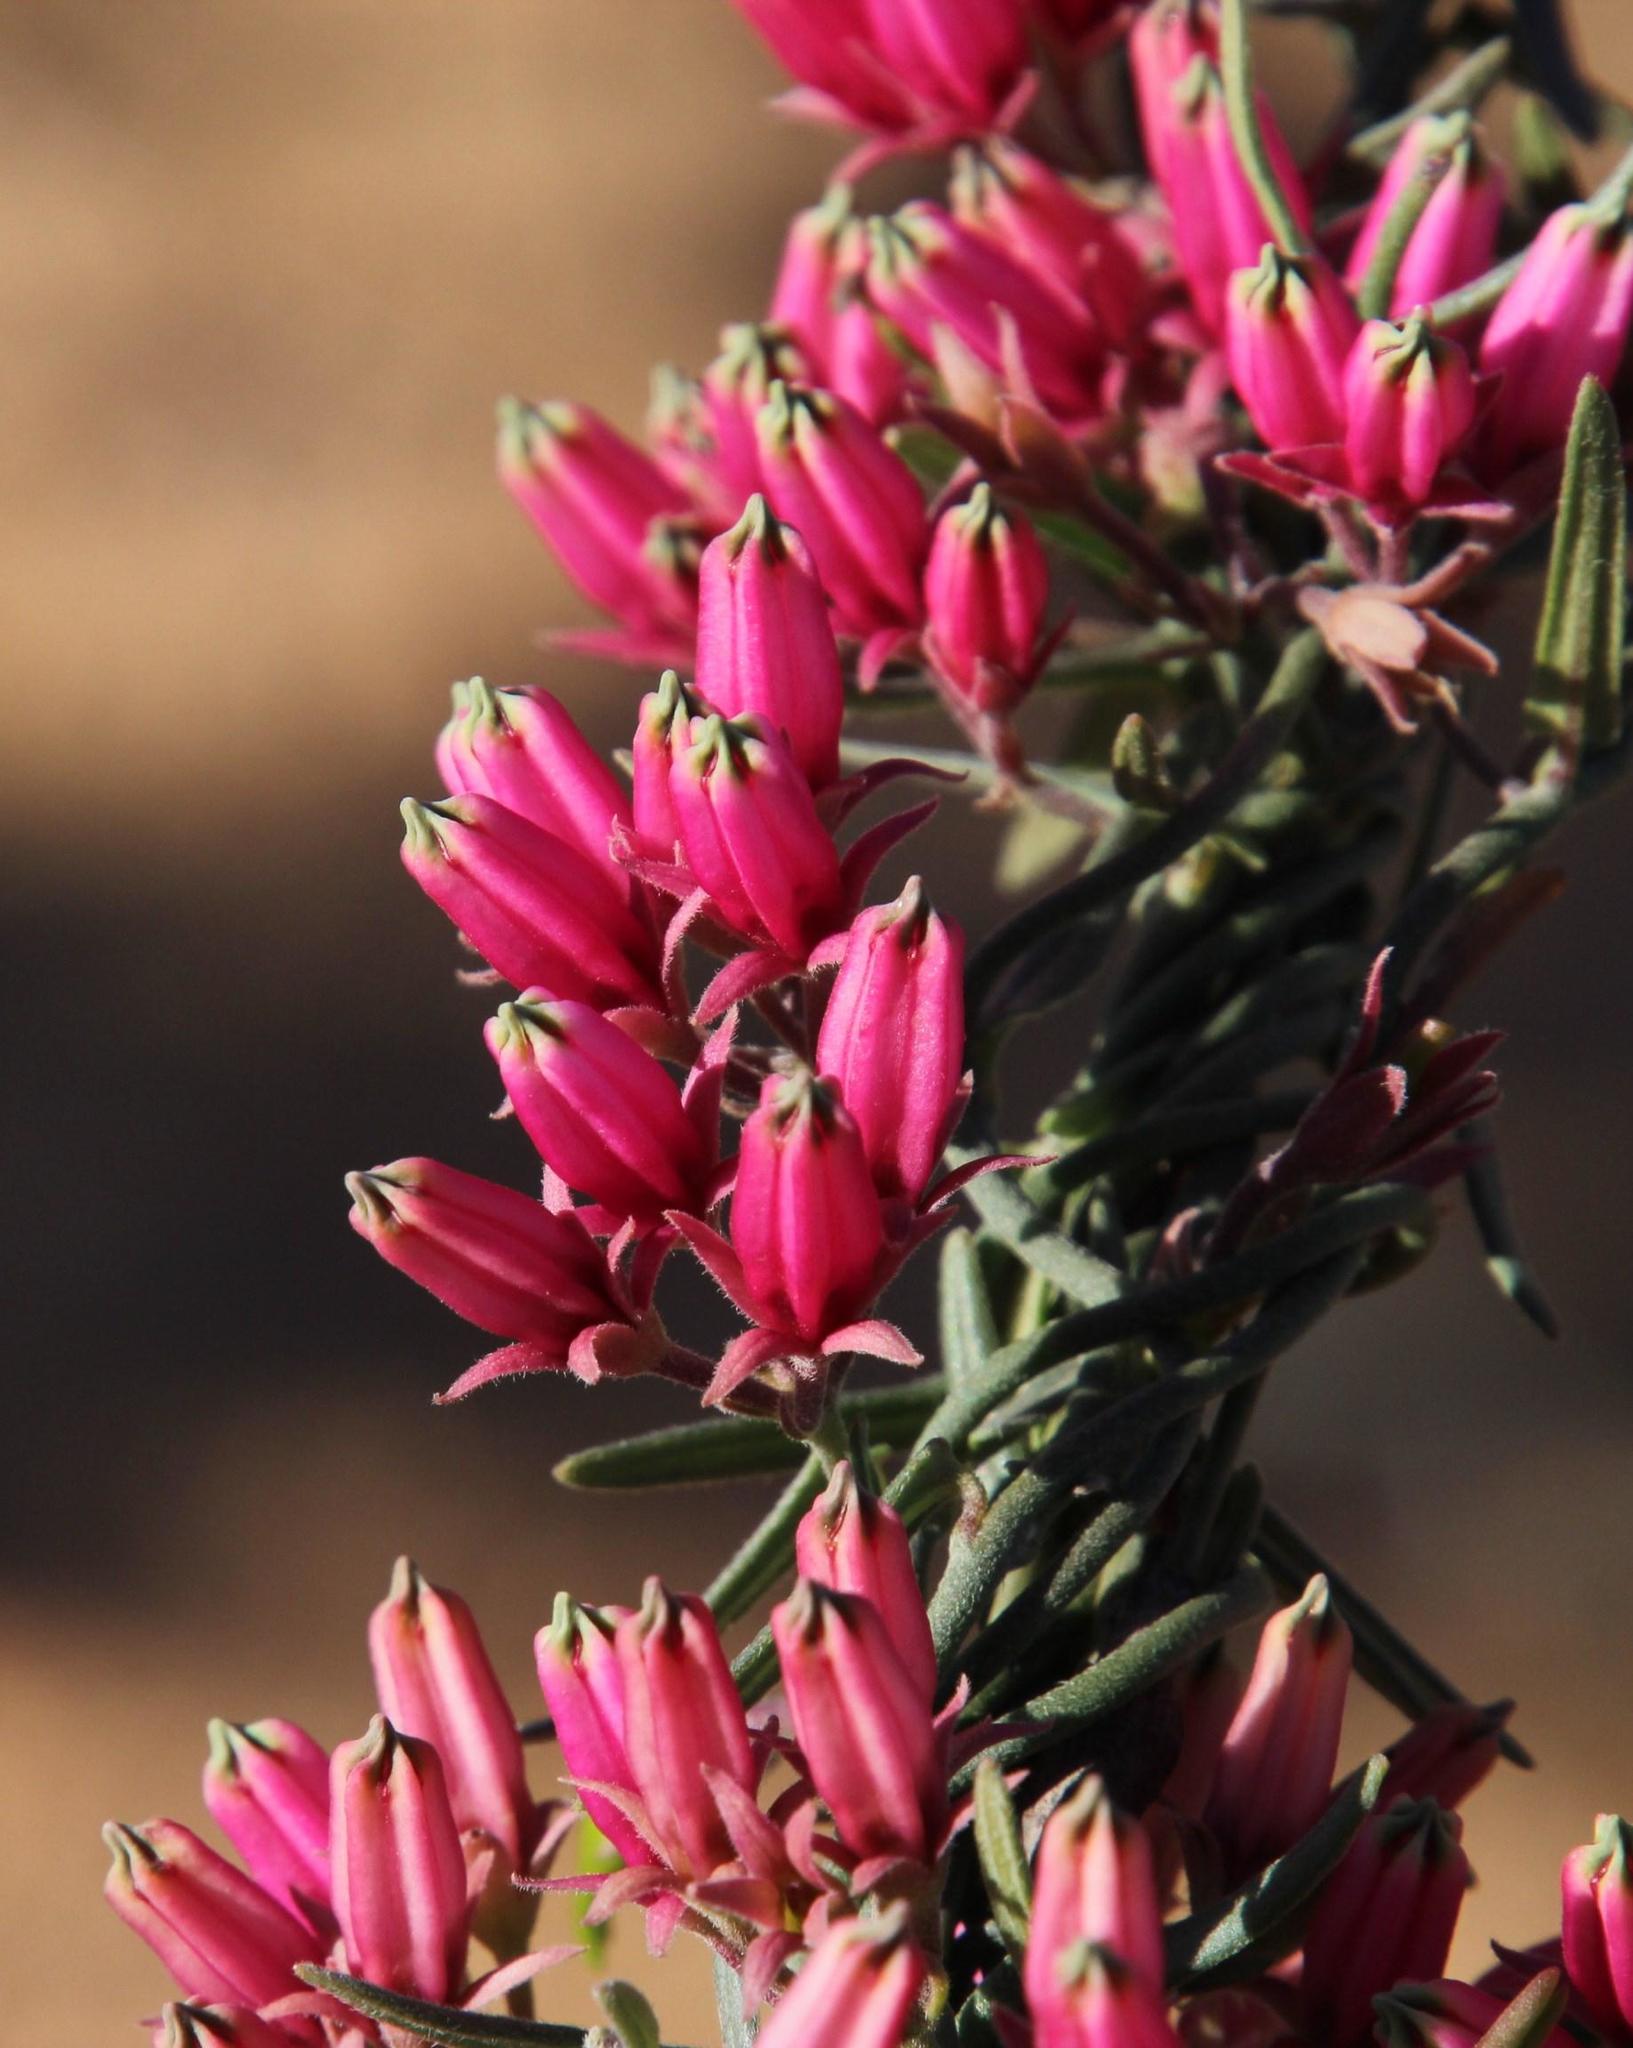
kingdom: Plantae
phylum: Tracheophyta
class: Magnoliopsida
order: Gentianales
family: Apocynaceae
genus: Microloma
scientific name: Microloma sagittatum
